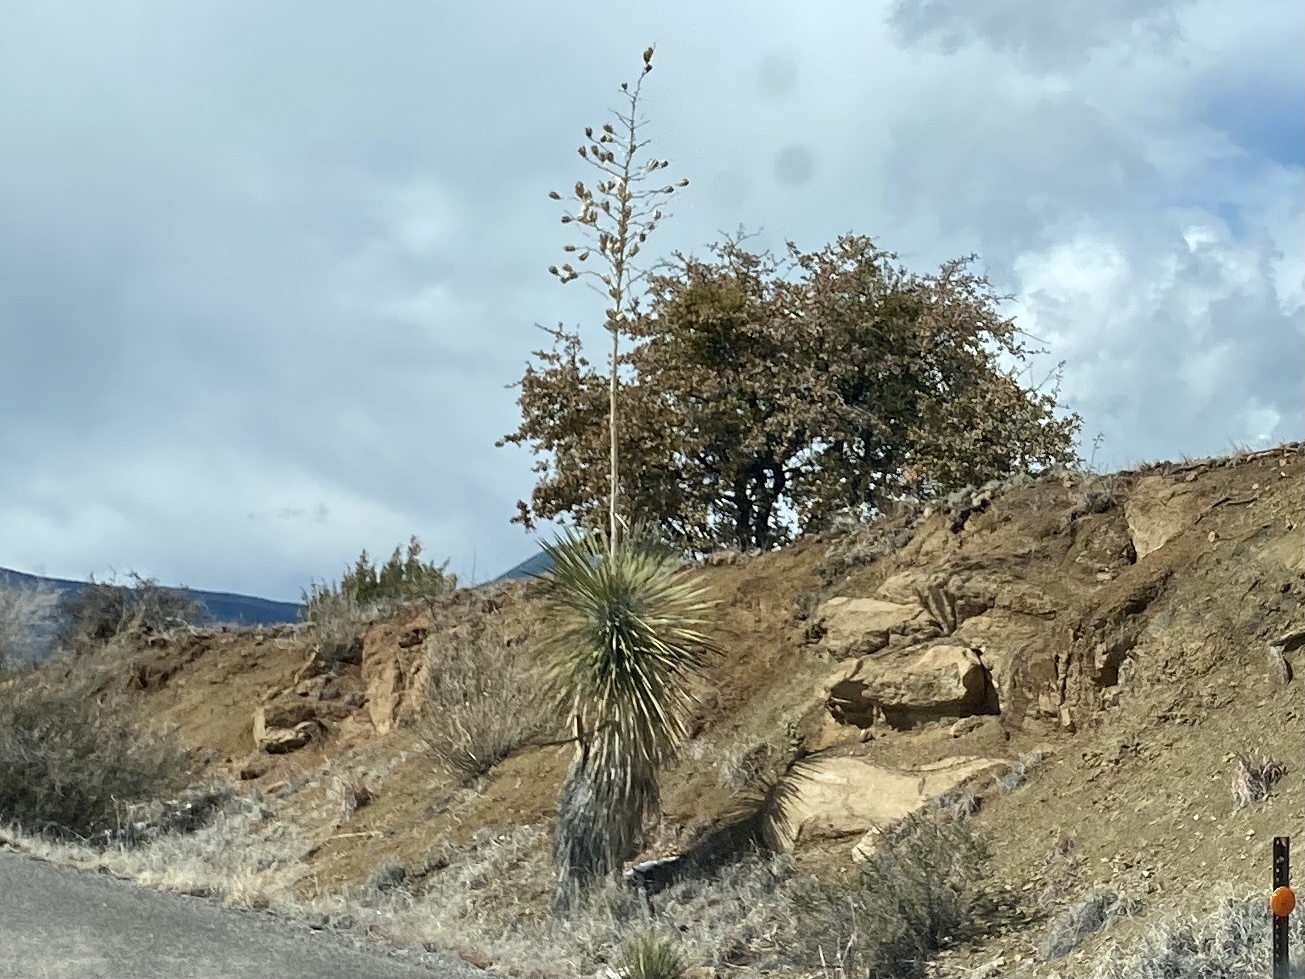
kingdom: Plantae
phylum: Tracheophyta
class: Liliopsida
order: Asparagales
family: Asparagaceae
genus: Yucca
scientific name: Yucca elata
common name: Palmella
